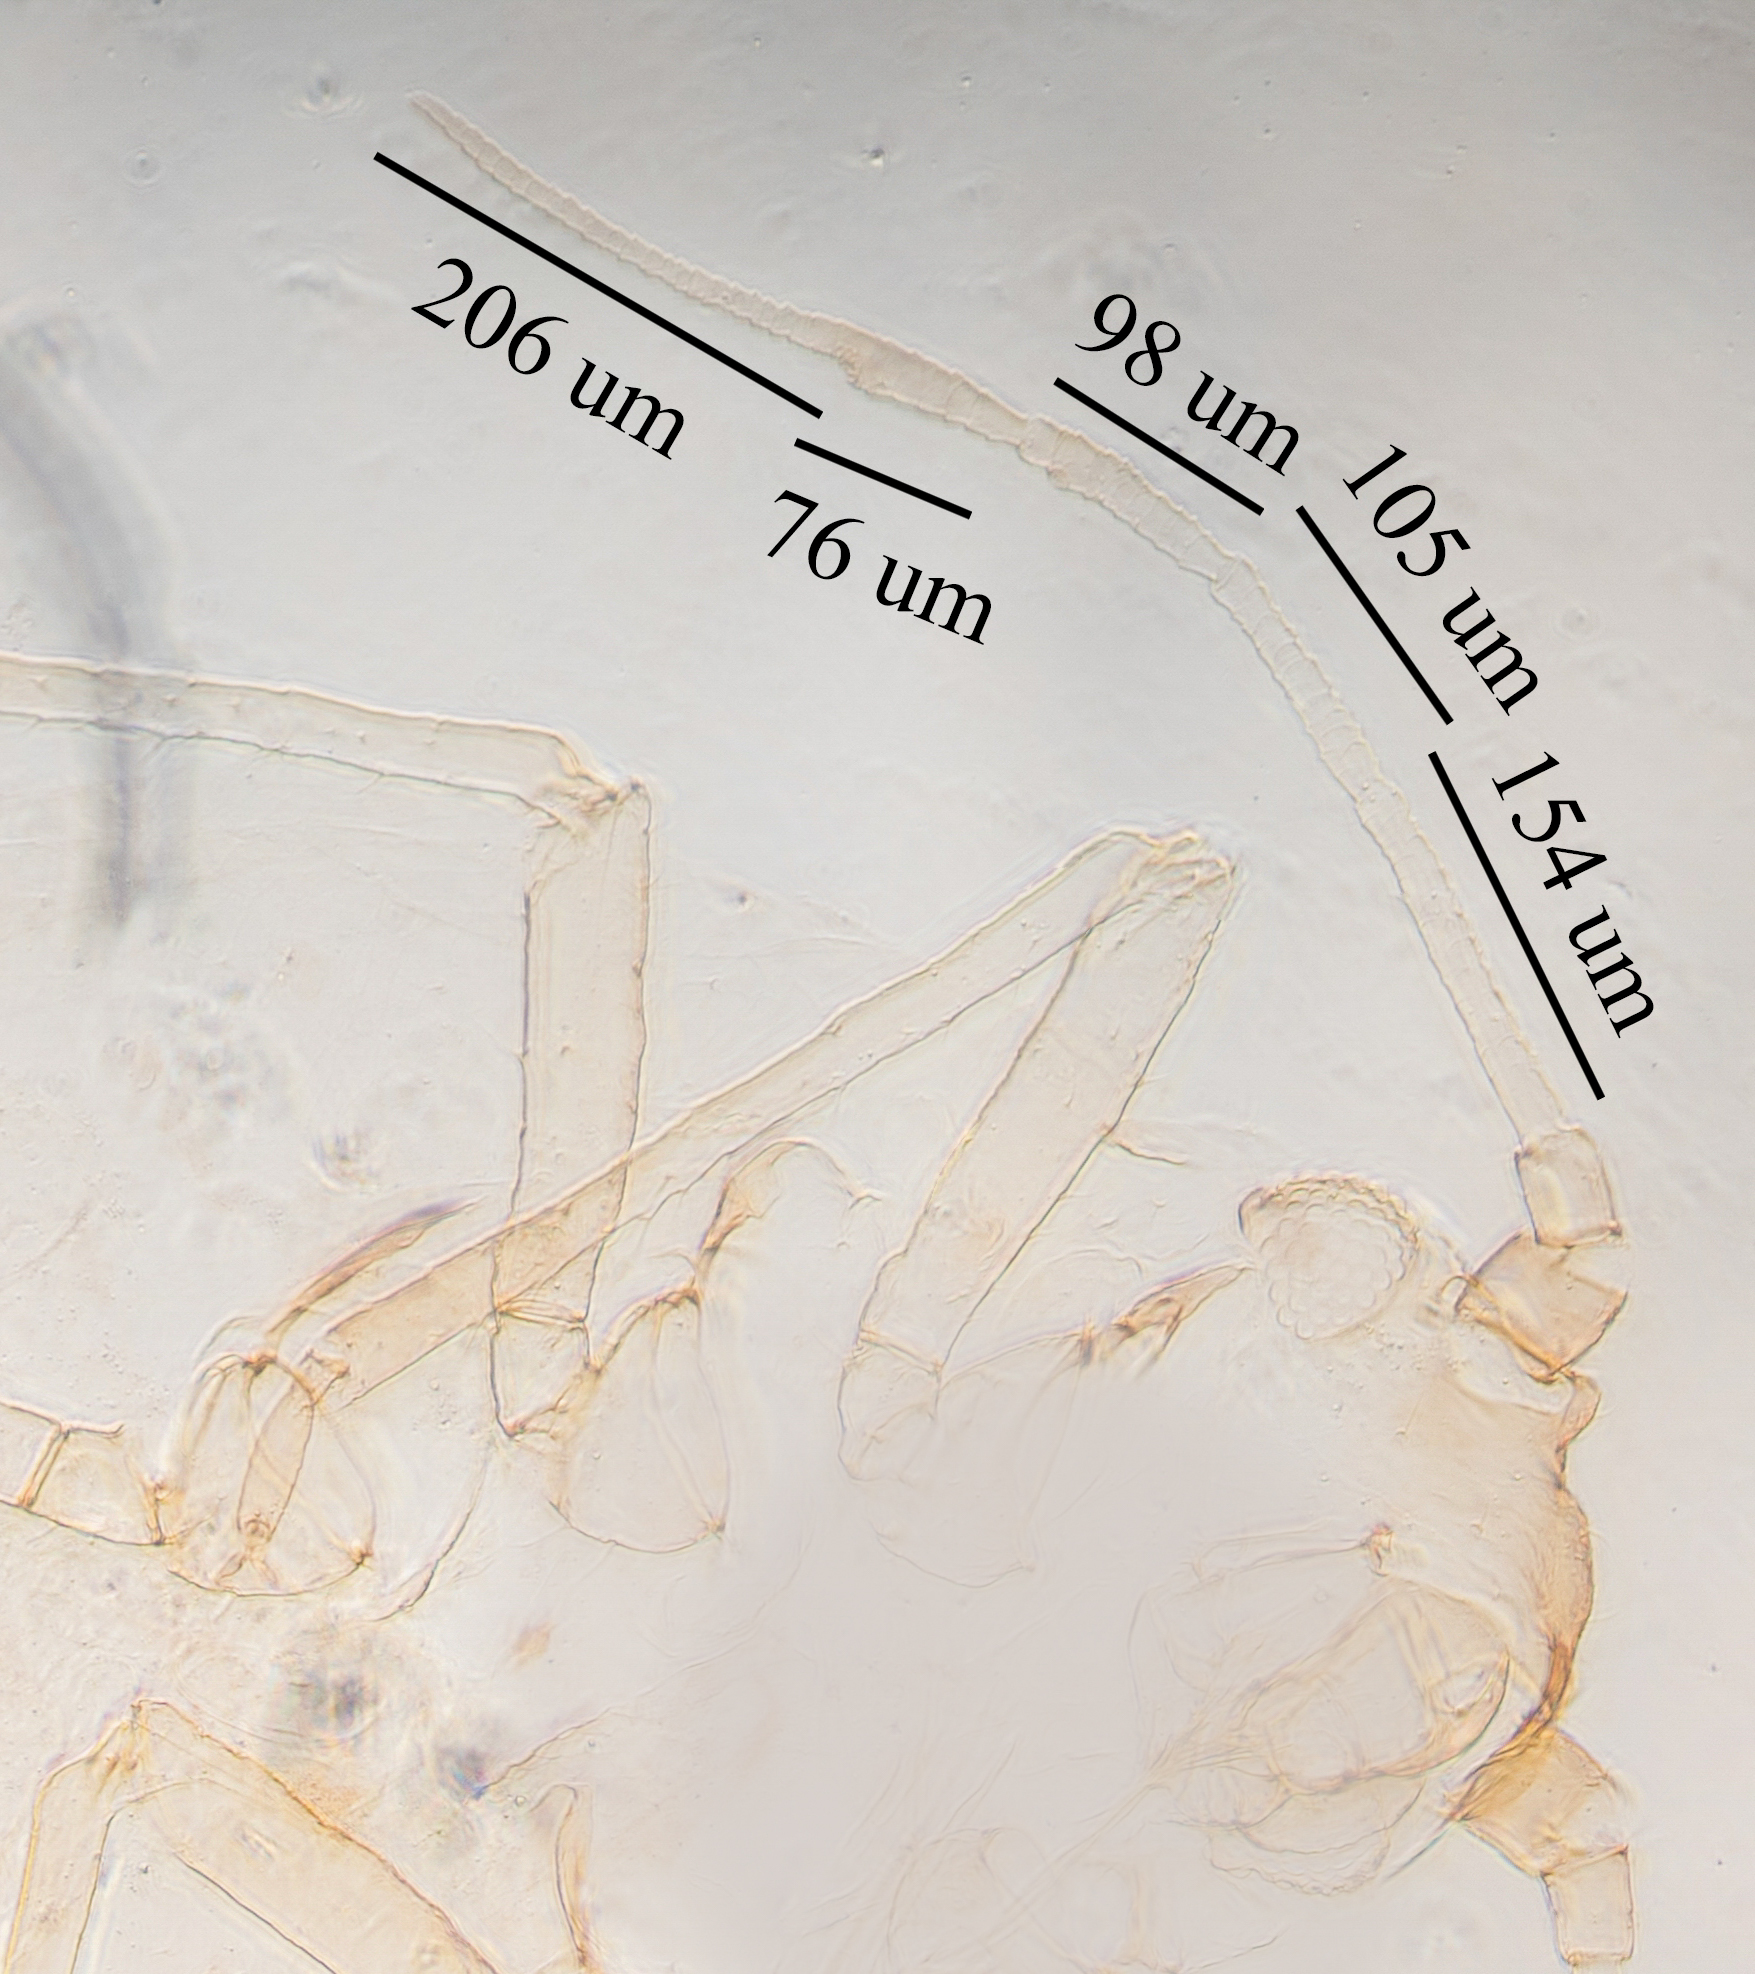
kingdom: Animalia
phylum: Arthropoda
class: Insecta
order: Hemiptera
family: Aphididae
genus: Aphis
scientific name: Aphis gossypii
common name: Melon aphid
